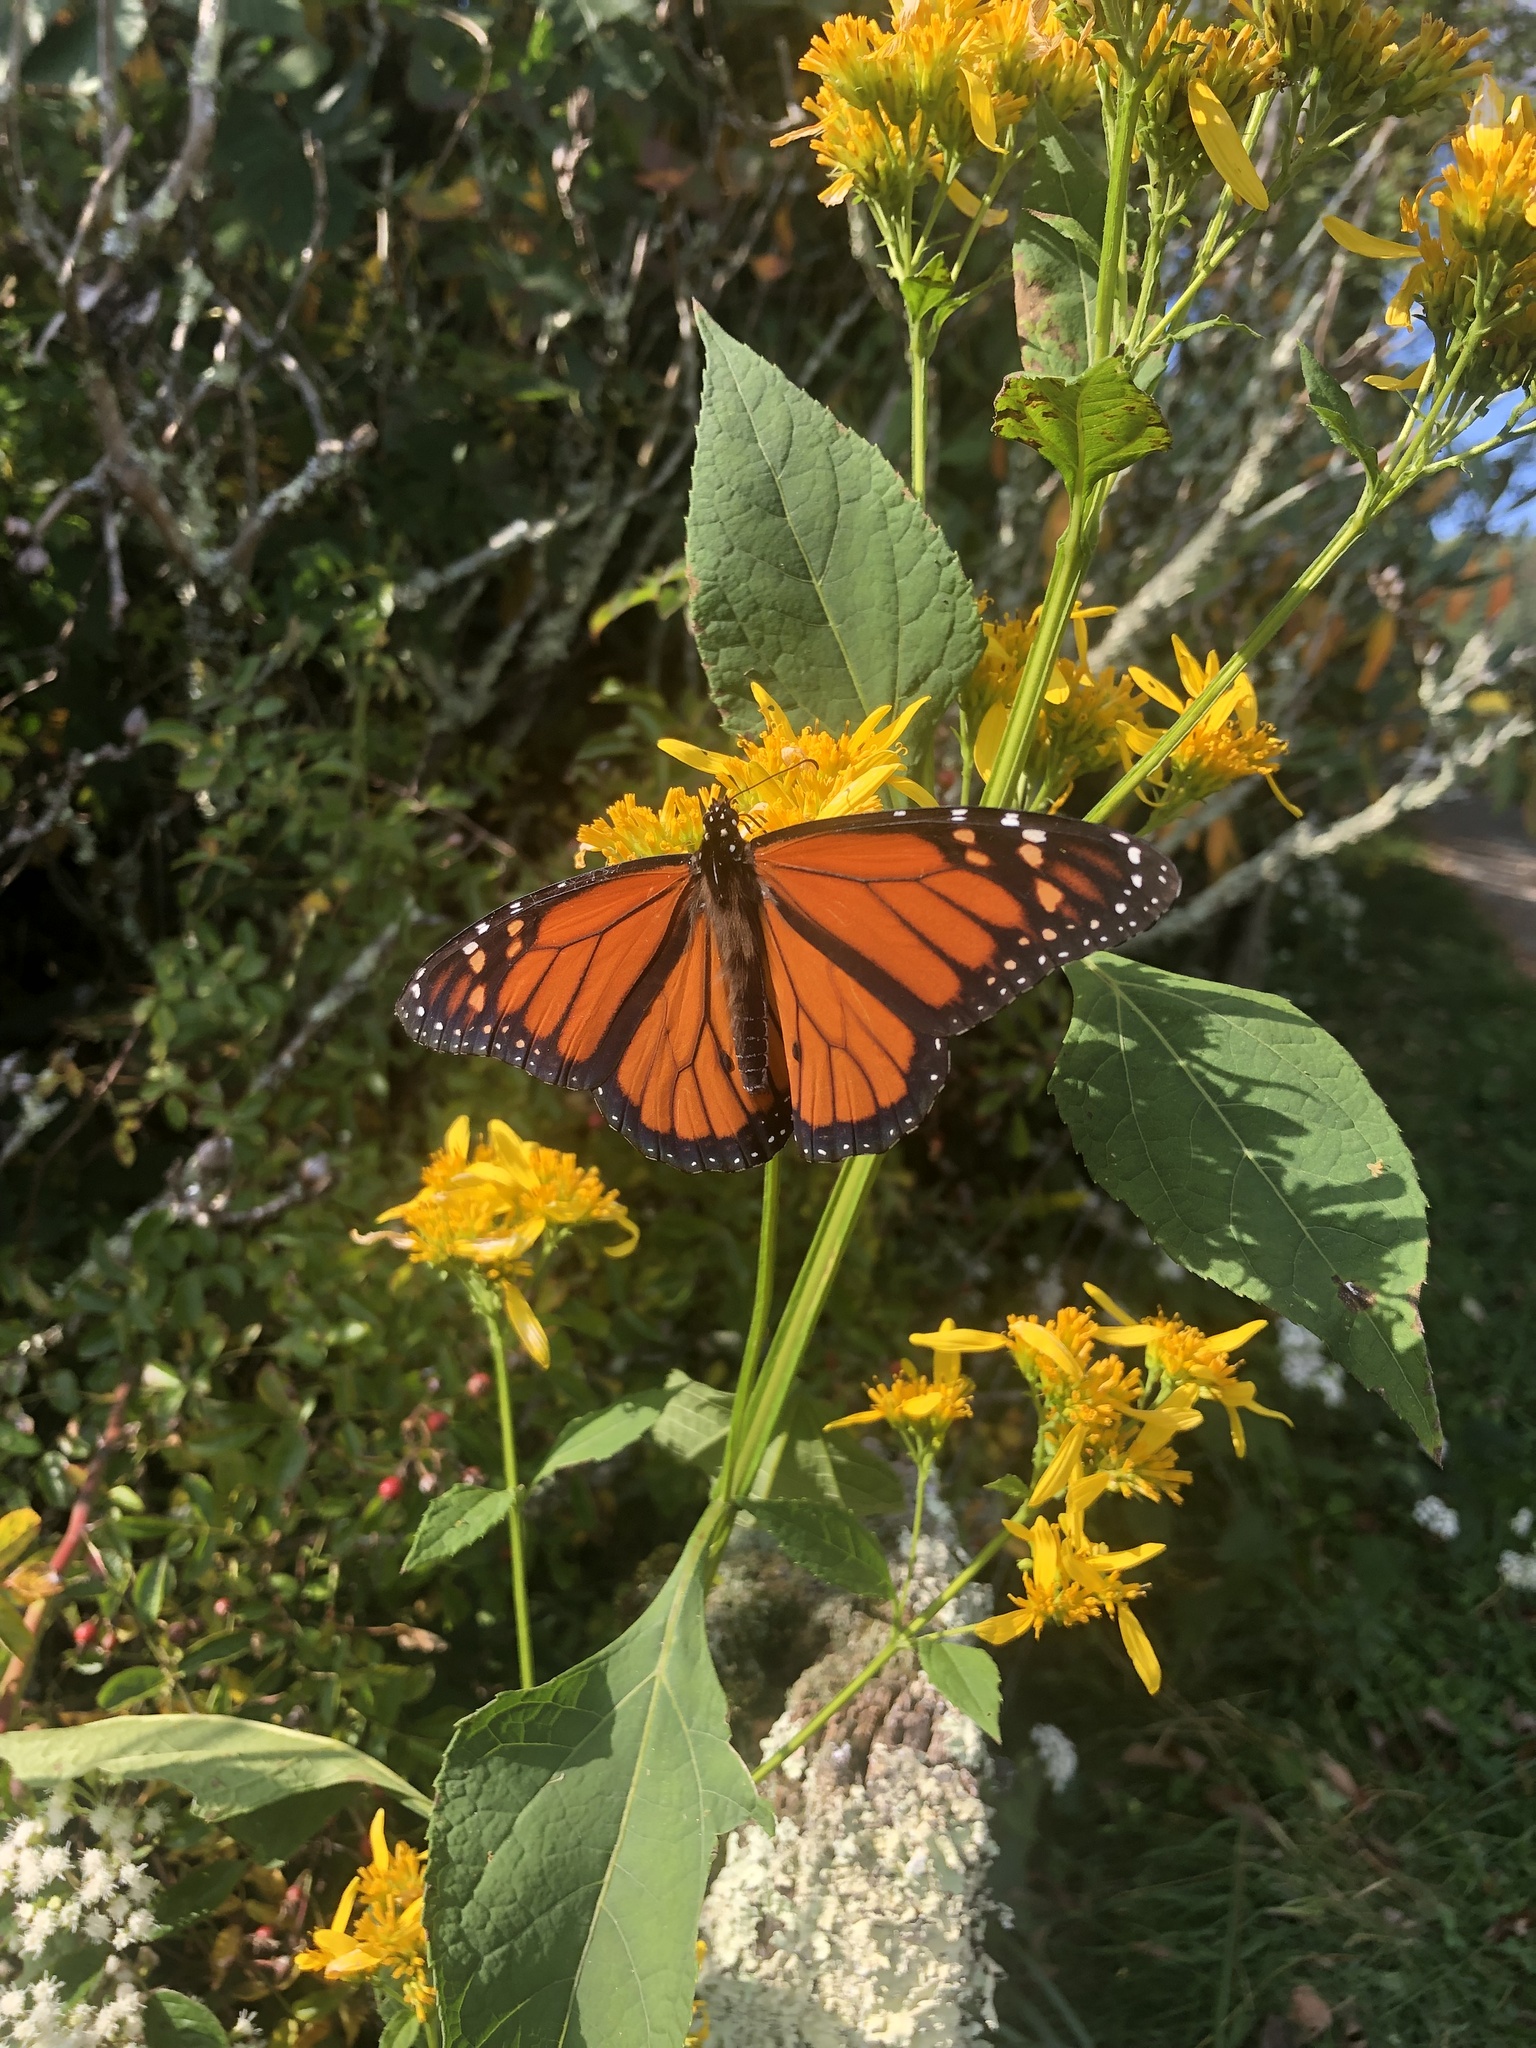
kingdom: Animalia
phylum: Arthropoda
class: Insecta
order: Lepidoptera
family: Nymphalidae
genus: Danaus
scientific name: Danaus plexippus
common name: Monarch
